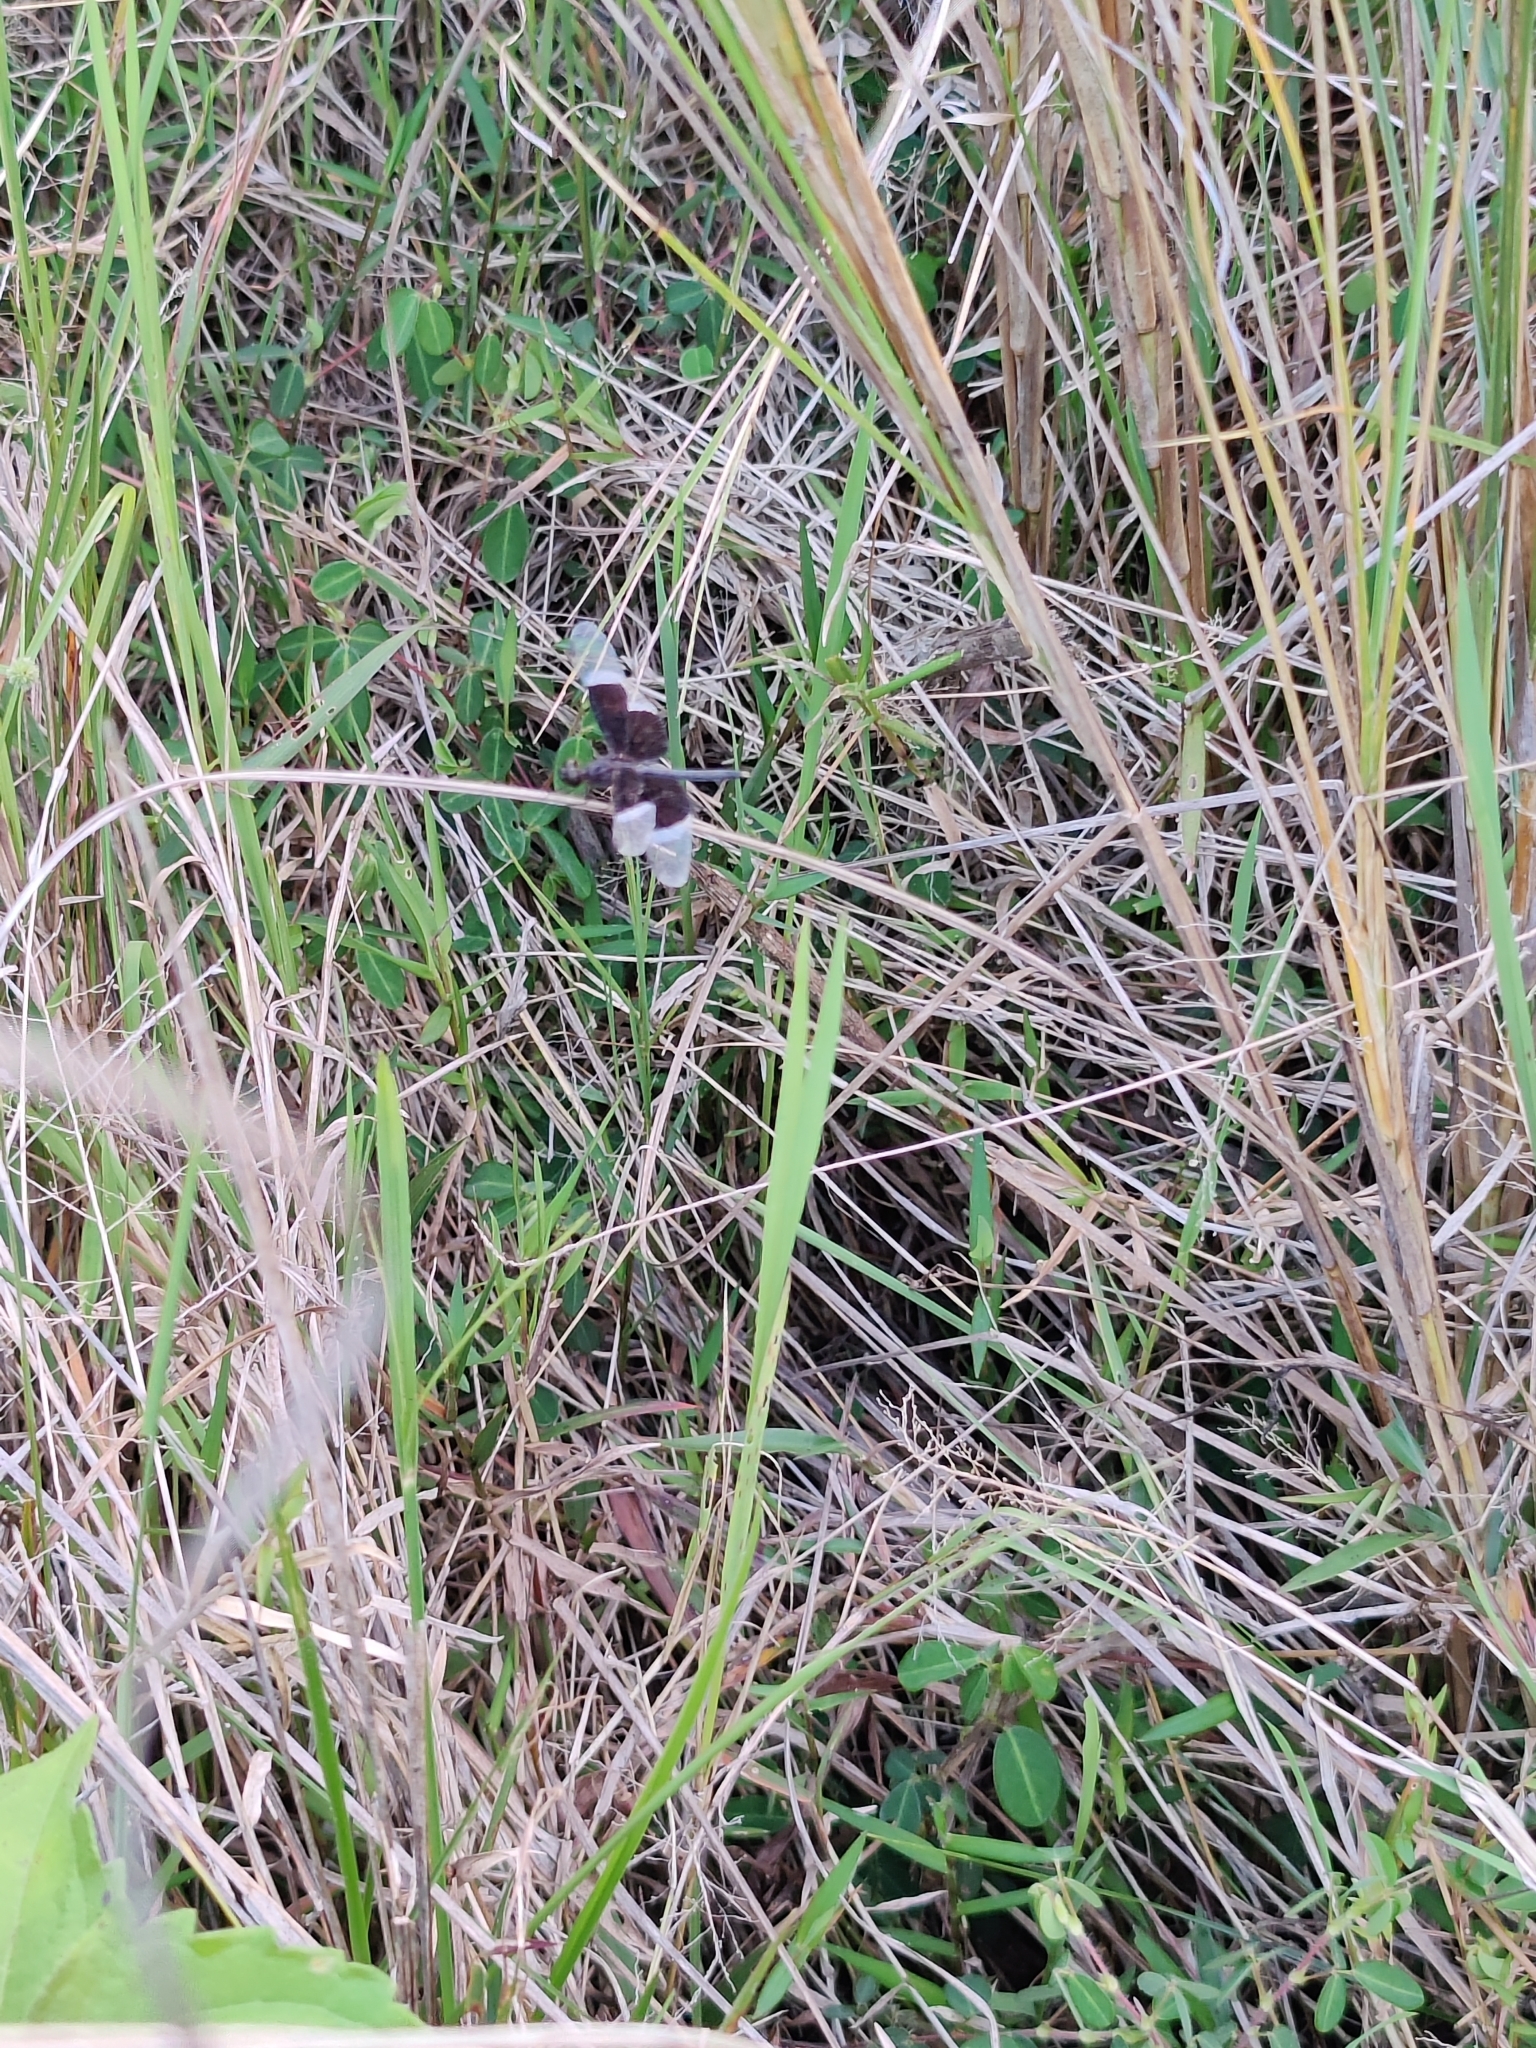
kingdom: Animalia
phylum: Arthropoda
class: Insecta
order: Odonata
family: Libellulidae
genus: Neurothemis
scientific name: Neurothemis tullia
